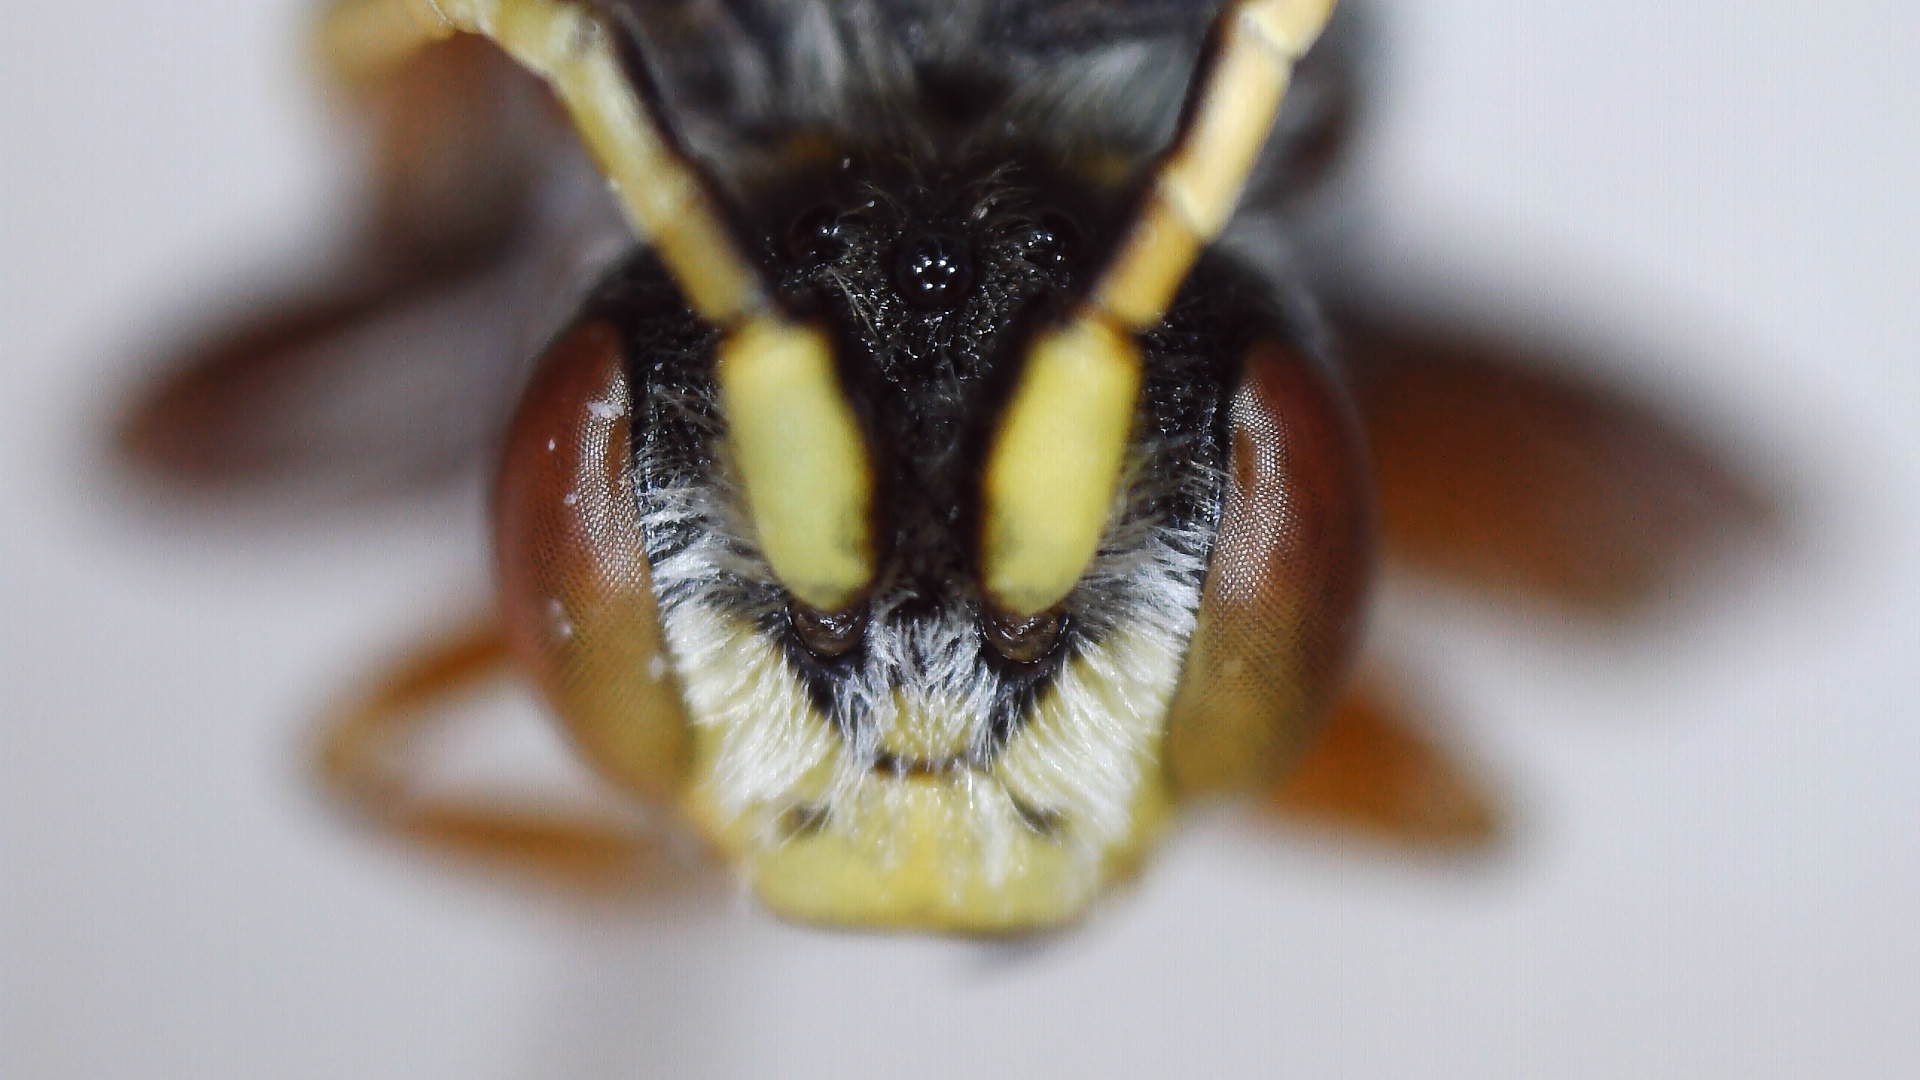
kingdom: Animalia
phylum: Arthropoda
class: Insecta
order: Hymenoptera
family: Apidae
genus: Nomada
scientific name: Nomada articulata
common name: Articulated nomad
